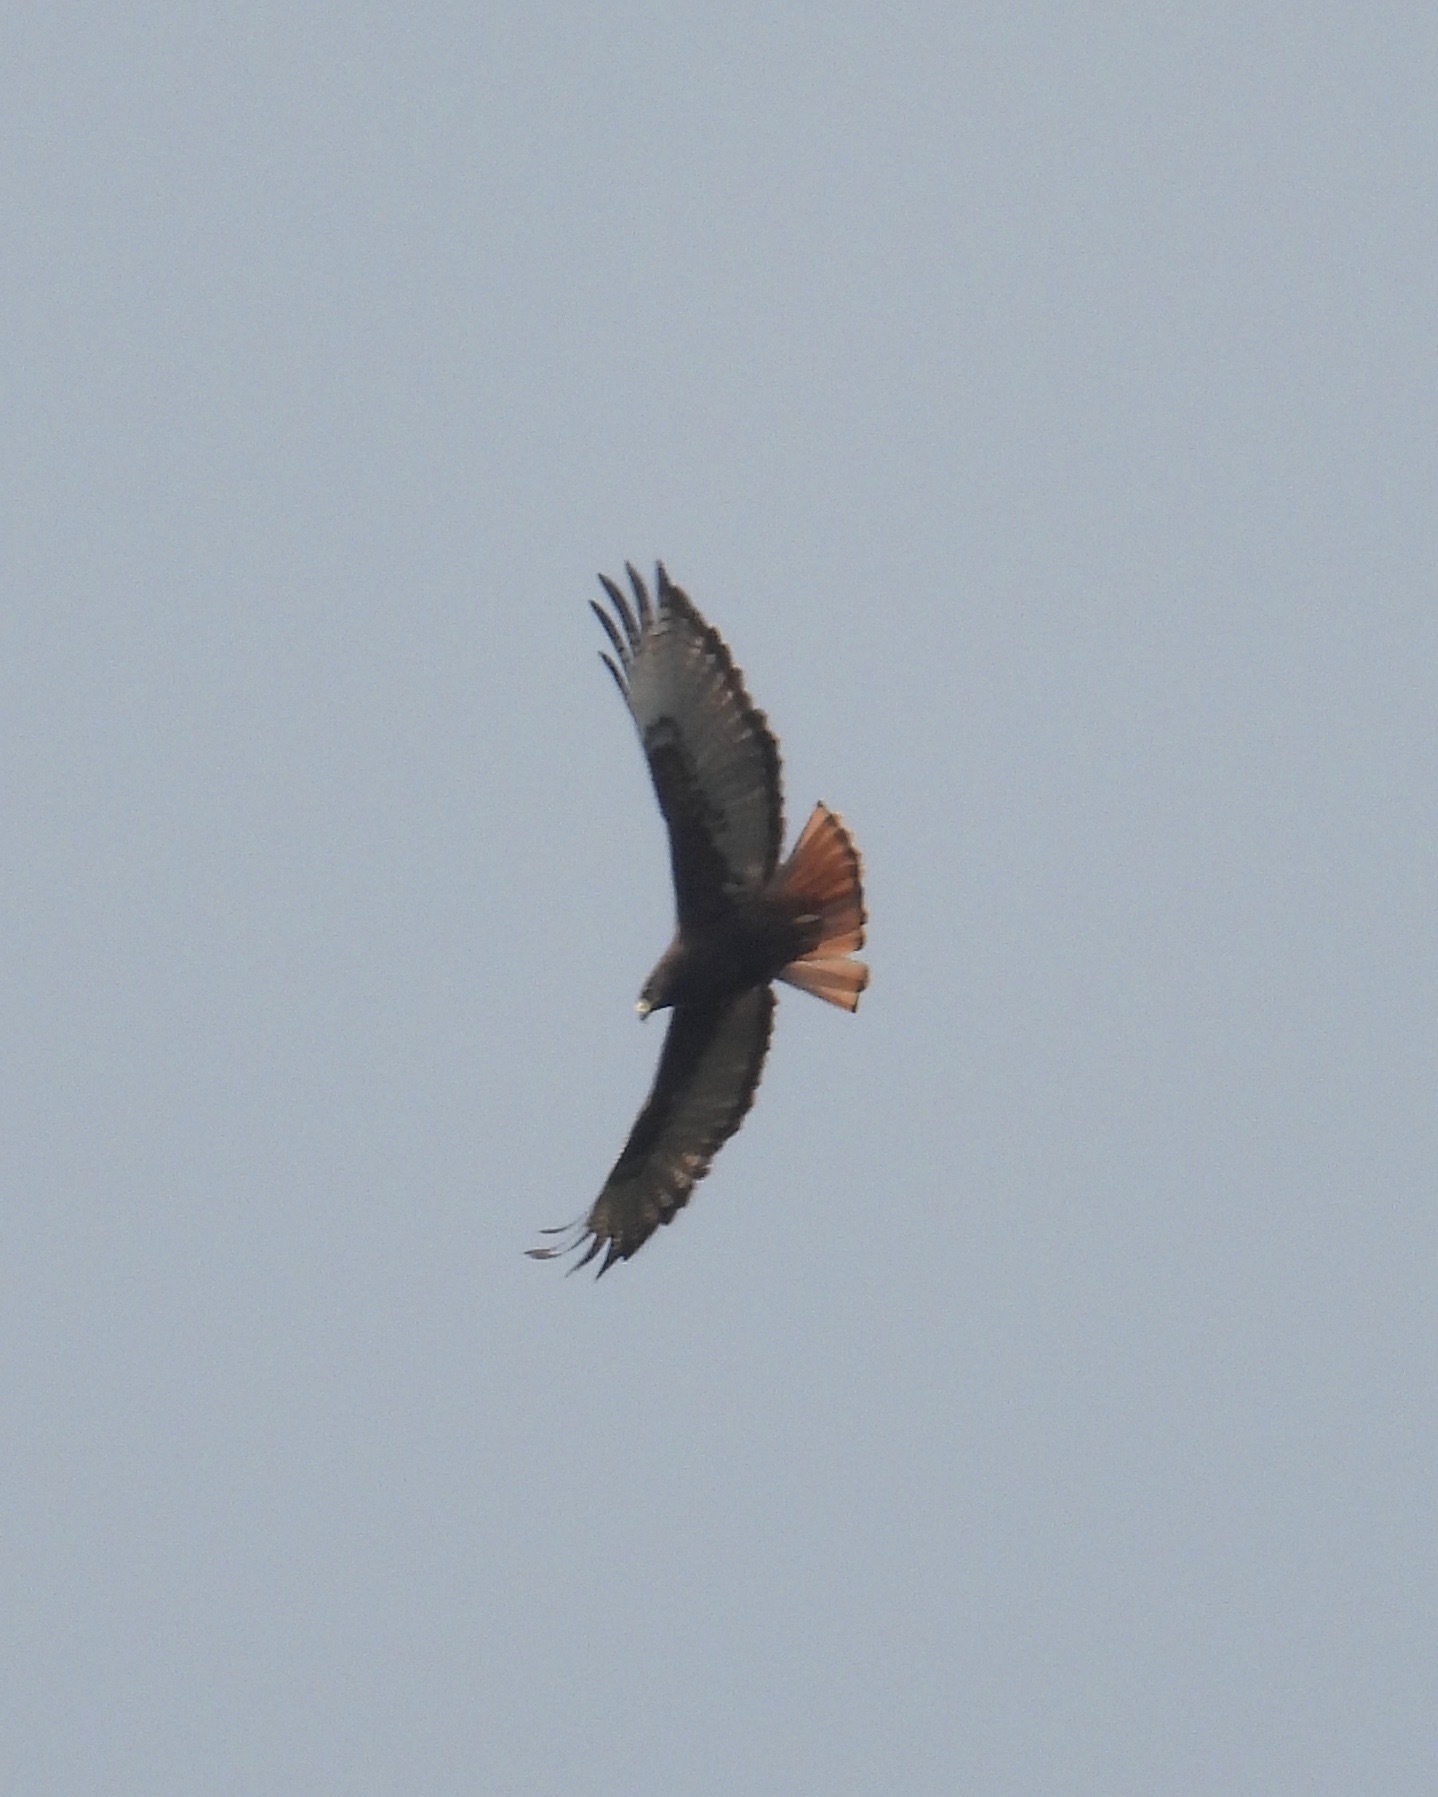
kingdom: Animalia
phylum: Chordata
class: Aves
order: Accipitriformes
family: Accipitridae
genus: Buteo
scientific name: Buteo jamaicensis
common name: Red-tailed hawk
